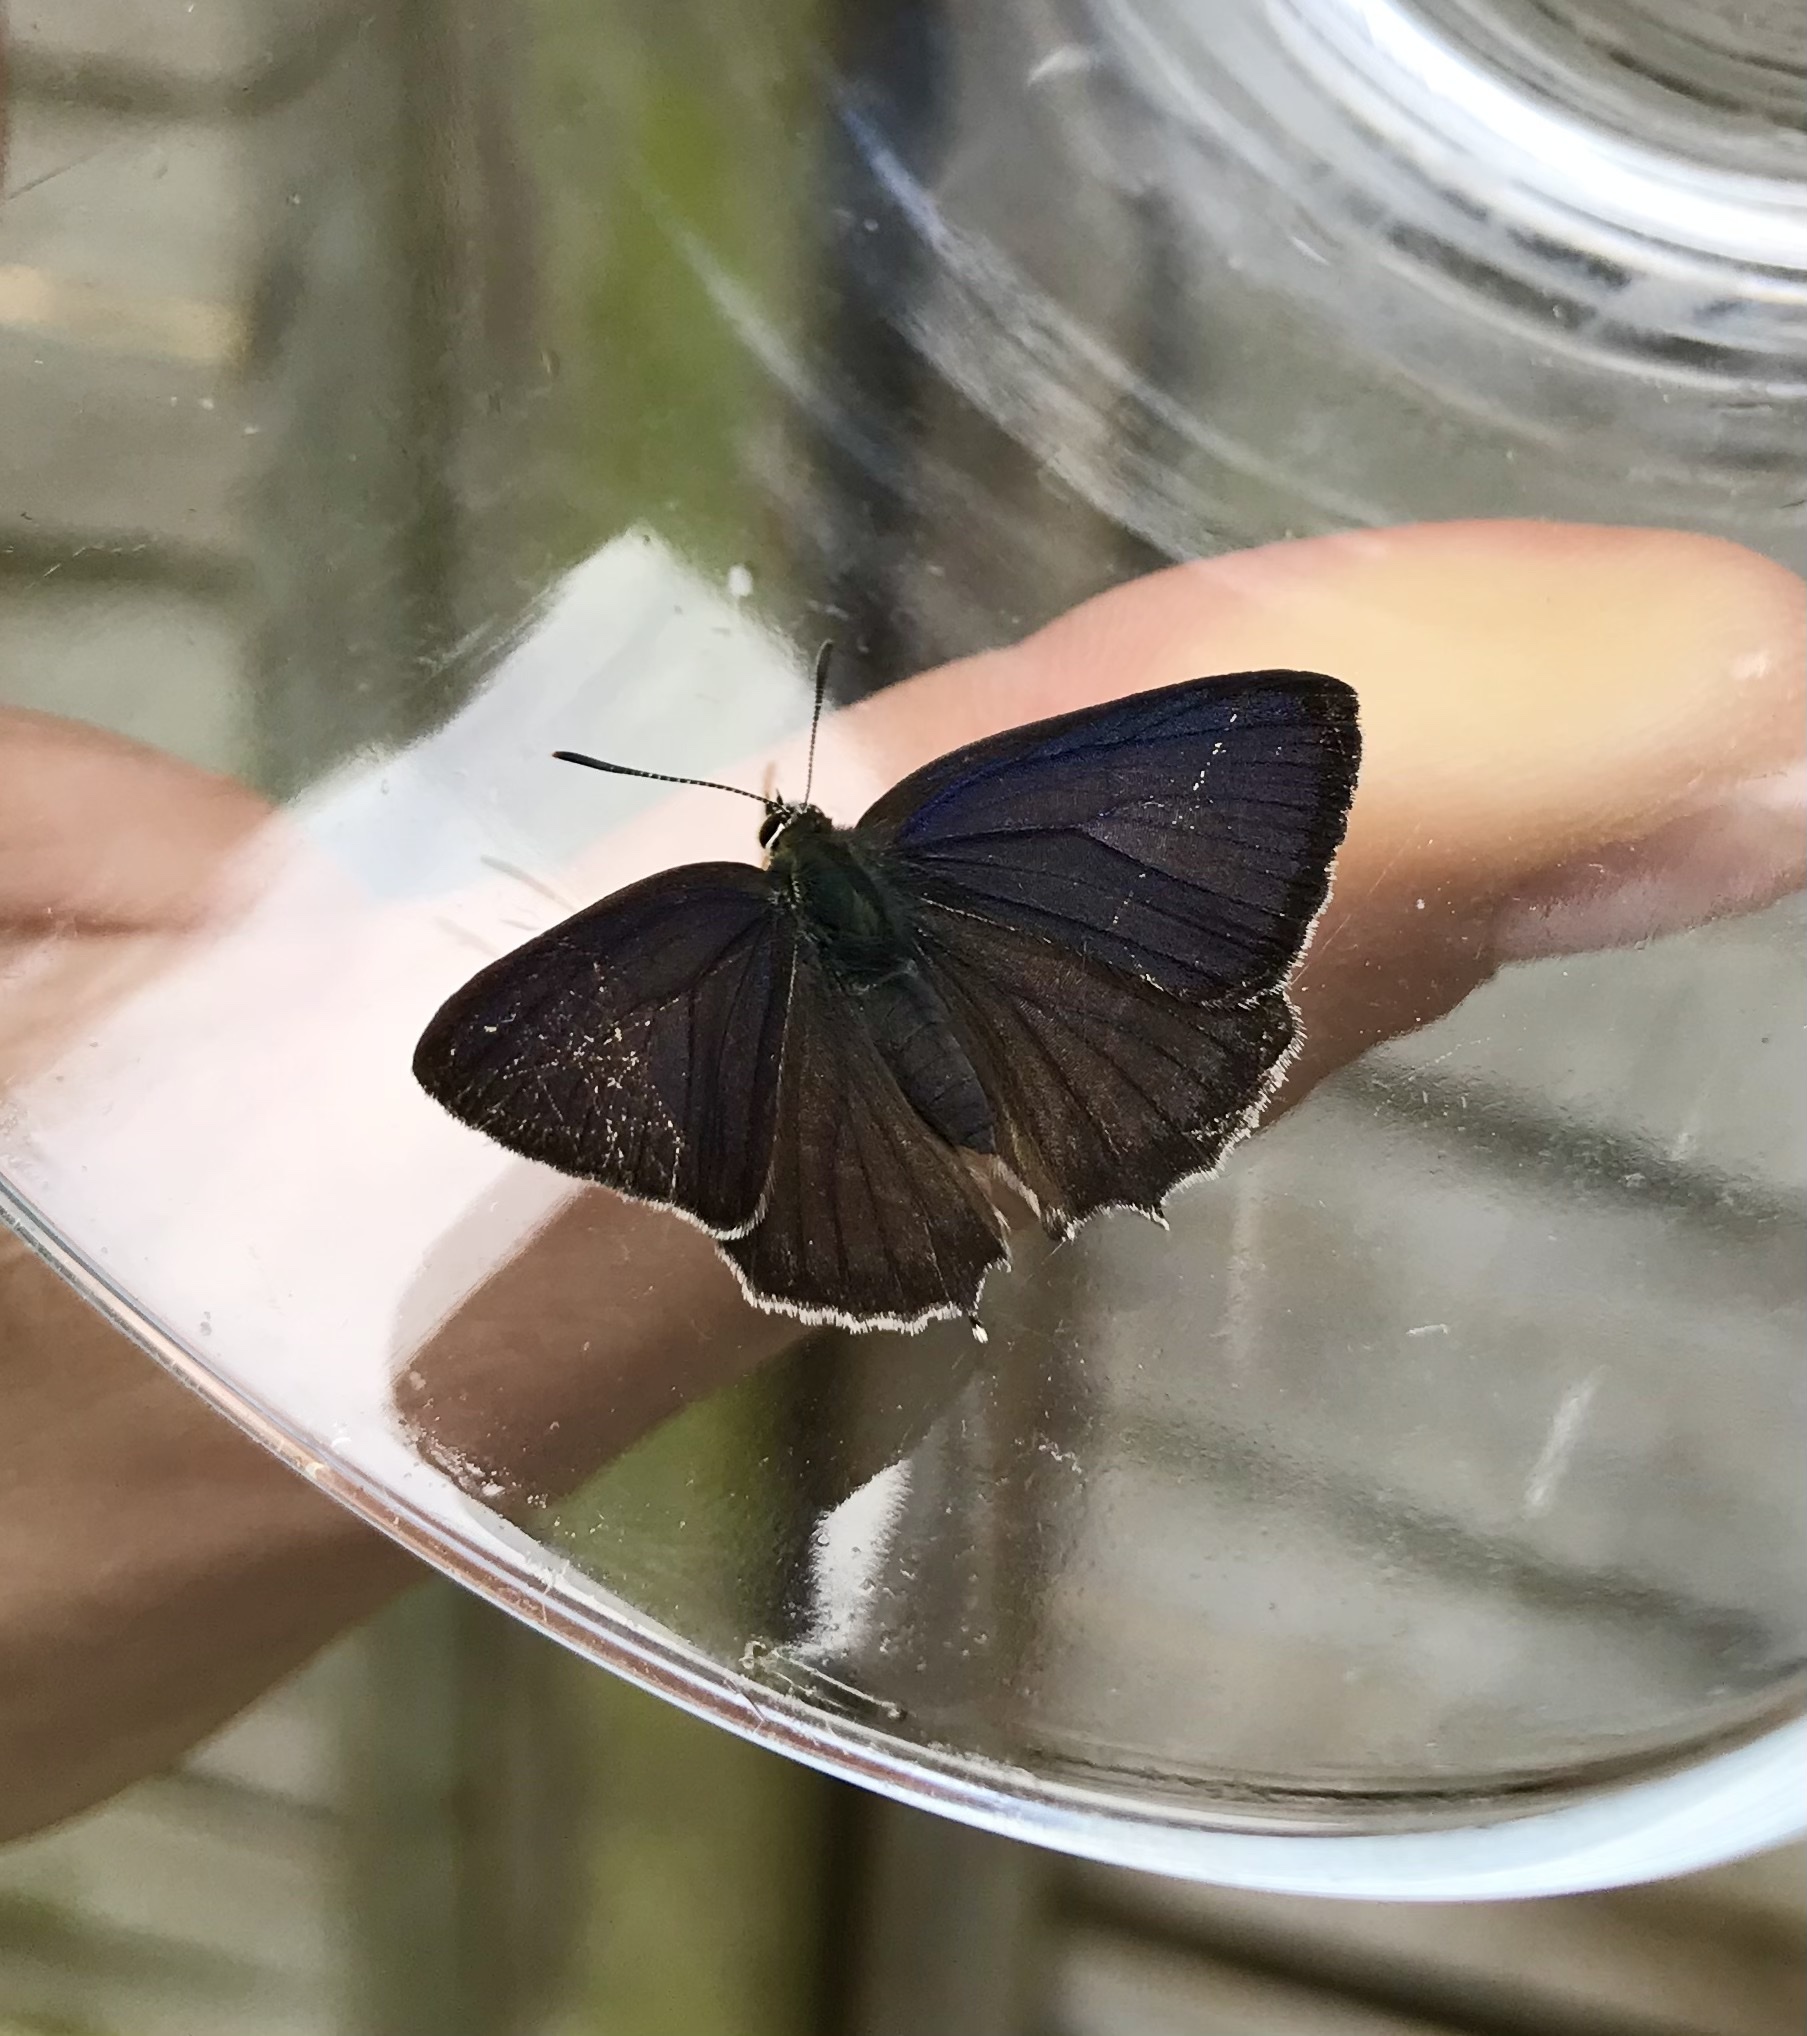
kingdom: Animalia
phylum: Arthropoda
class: Insecta
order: Lepidoptera
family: Lycaenidae
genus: Quercusia
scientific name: Quercusia quercus
